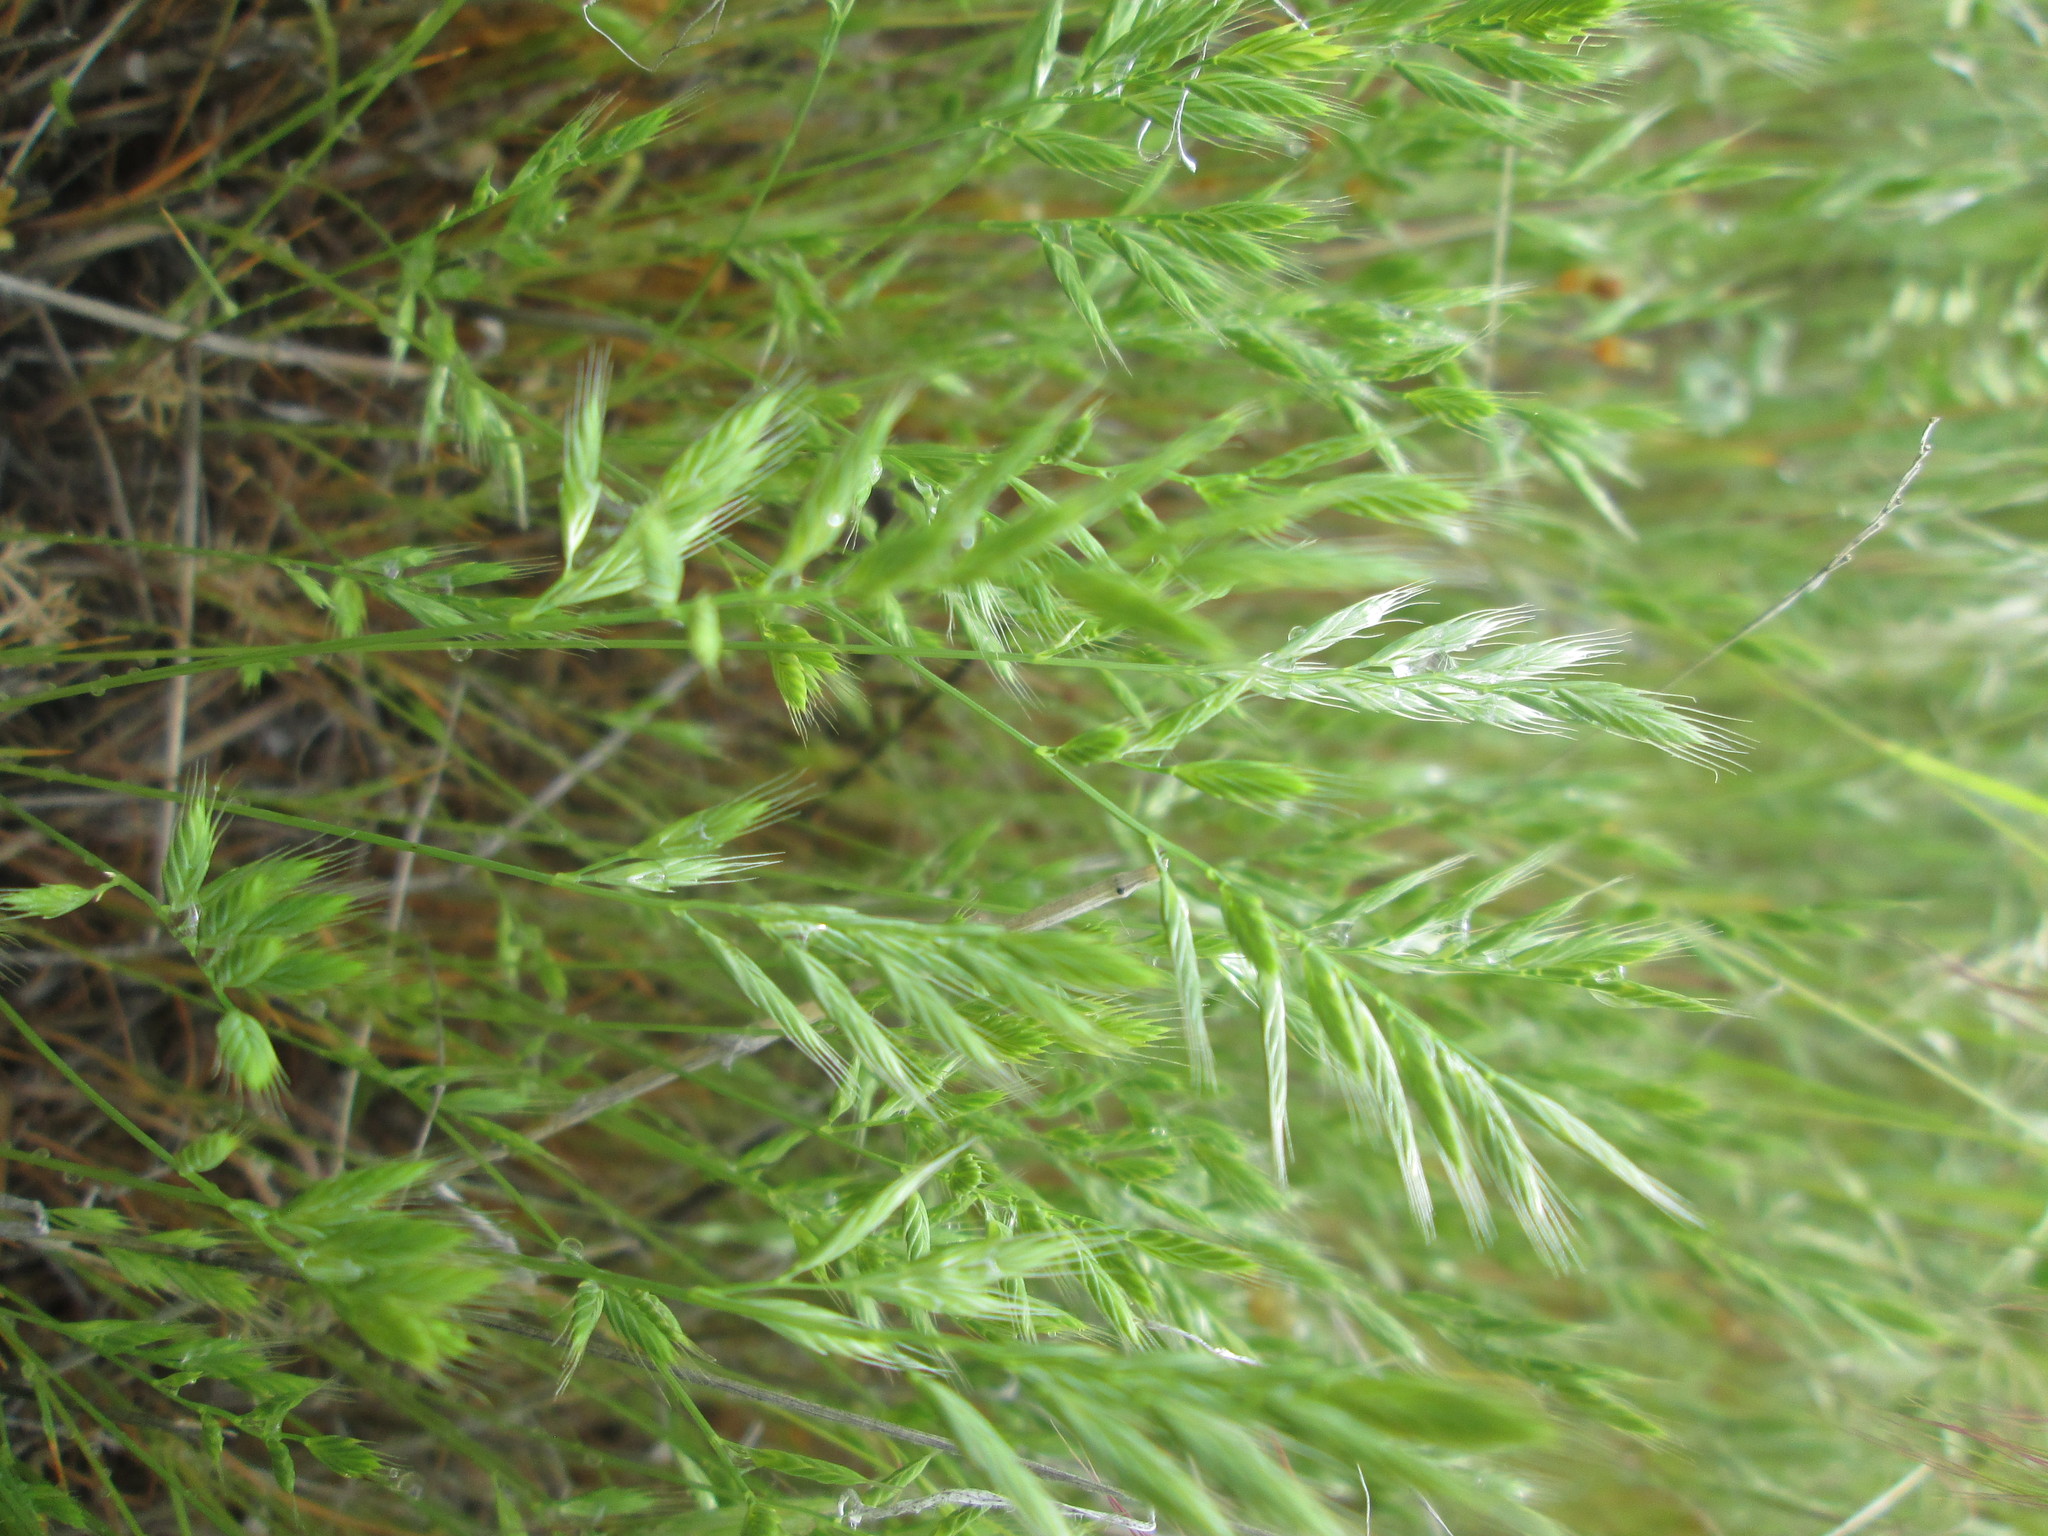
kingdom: Plantae
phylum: Tracheophyta
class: Liliopsida
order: Poales
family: Poaceae
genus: Festuca
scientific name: Festuca octoflora
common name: Sixweeks grass
